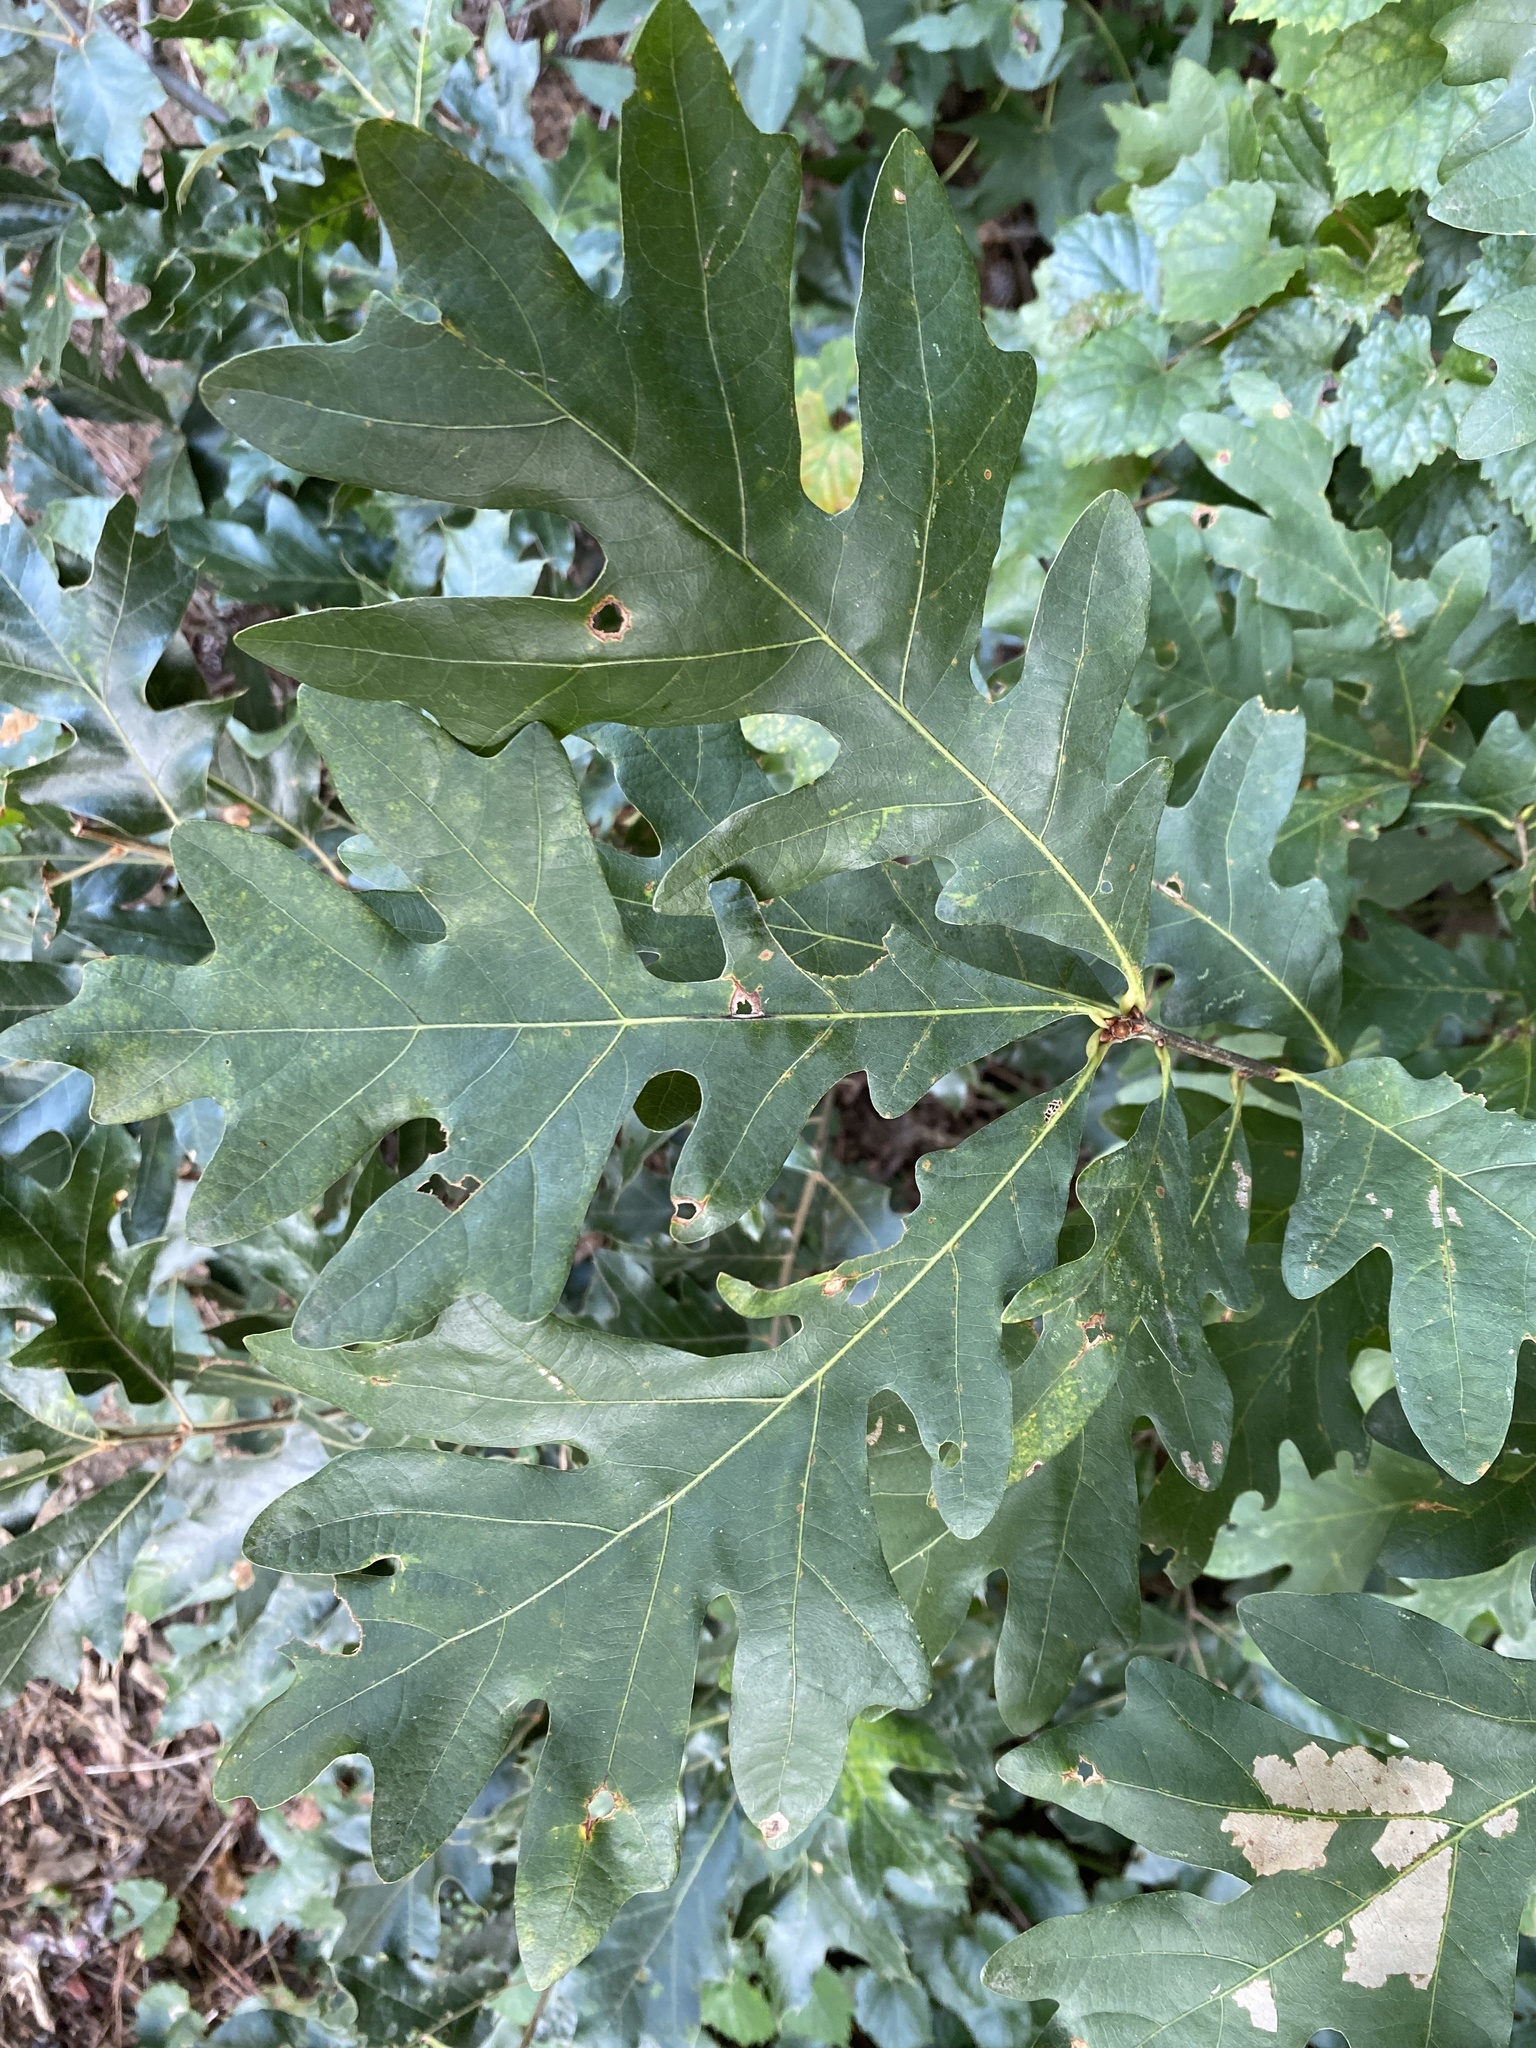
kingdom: Plantae
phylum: Tracheophyta
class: Magnoliopsida
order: Fagales
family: Fagaceae
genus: Quercus
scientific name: Quercus alba
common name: White oak
